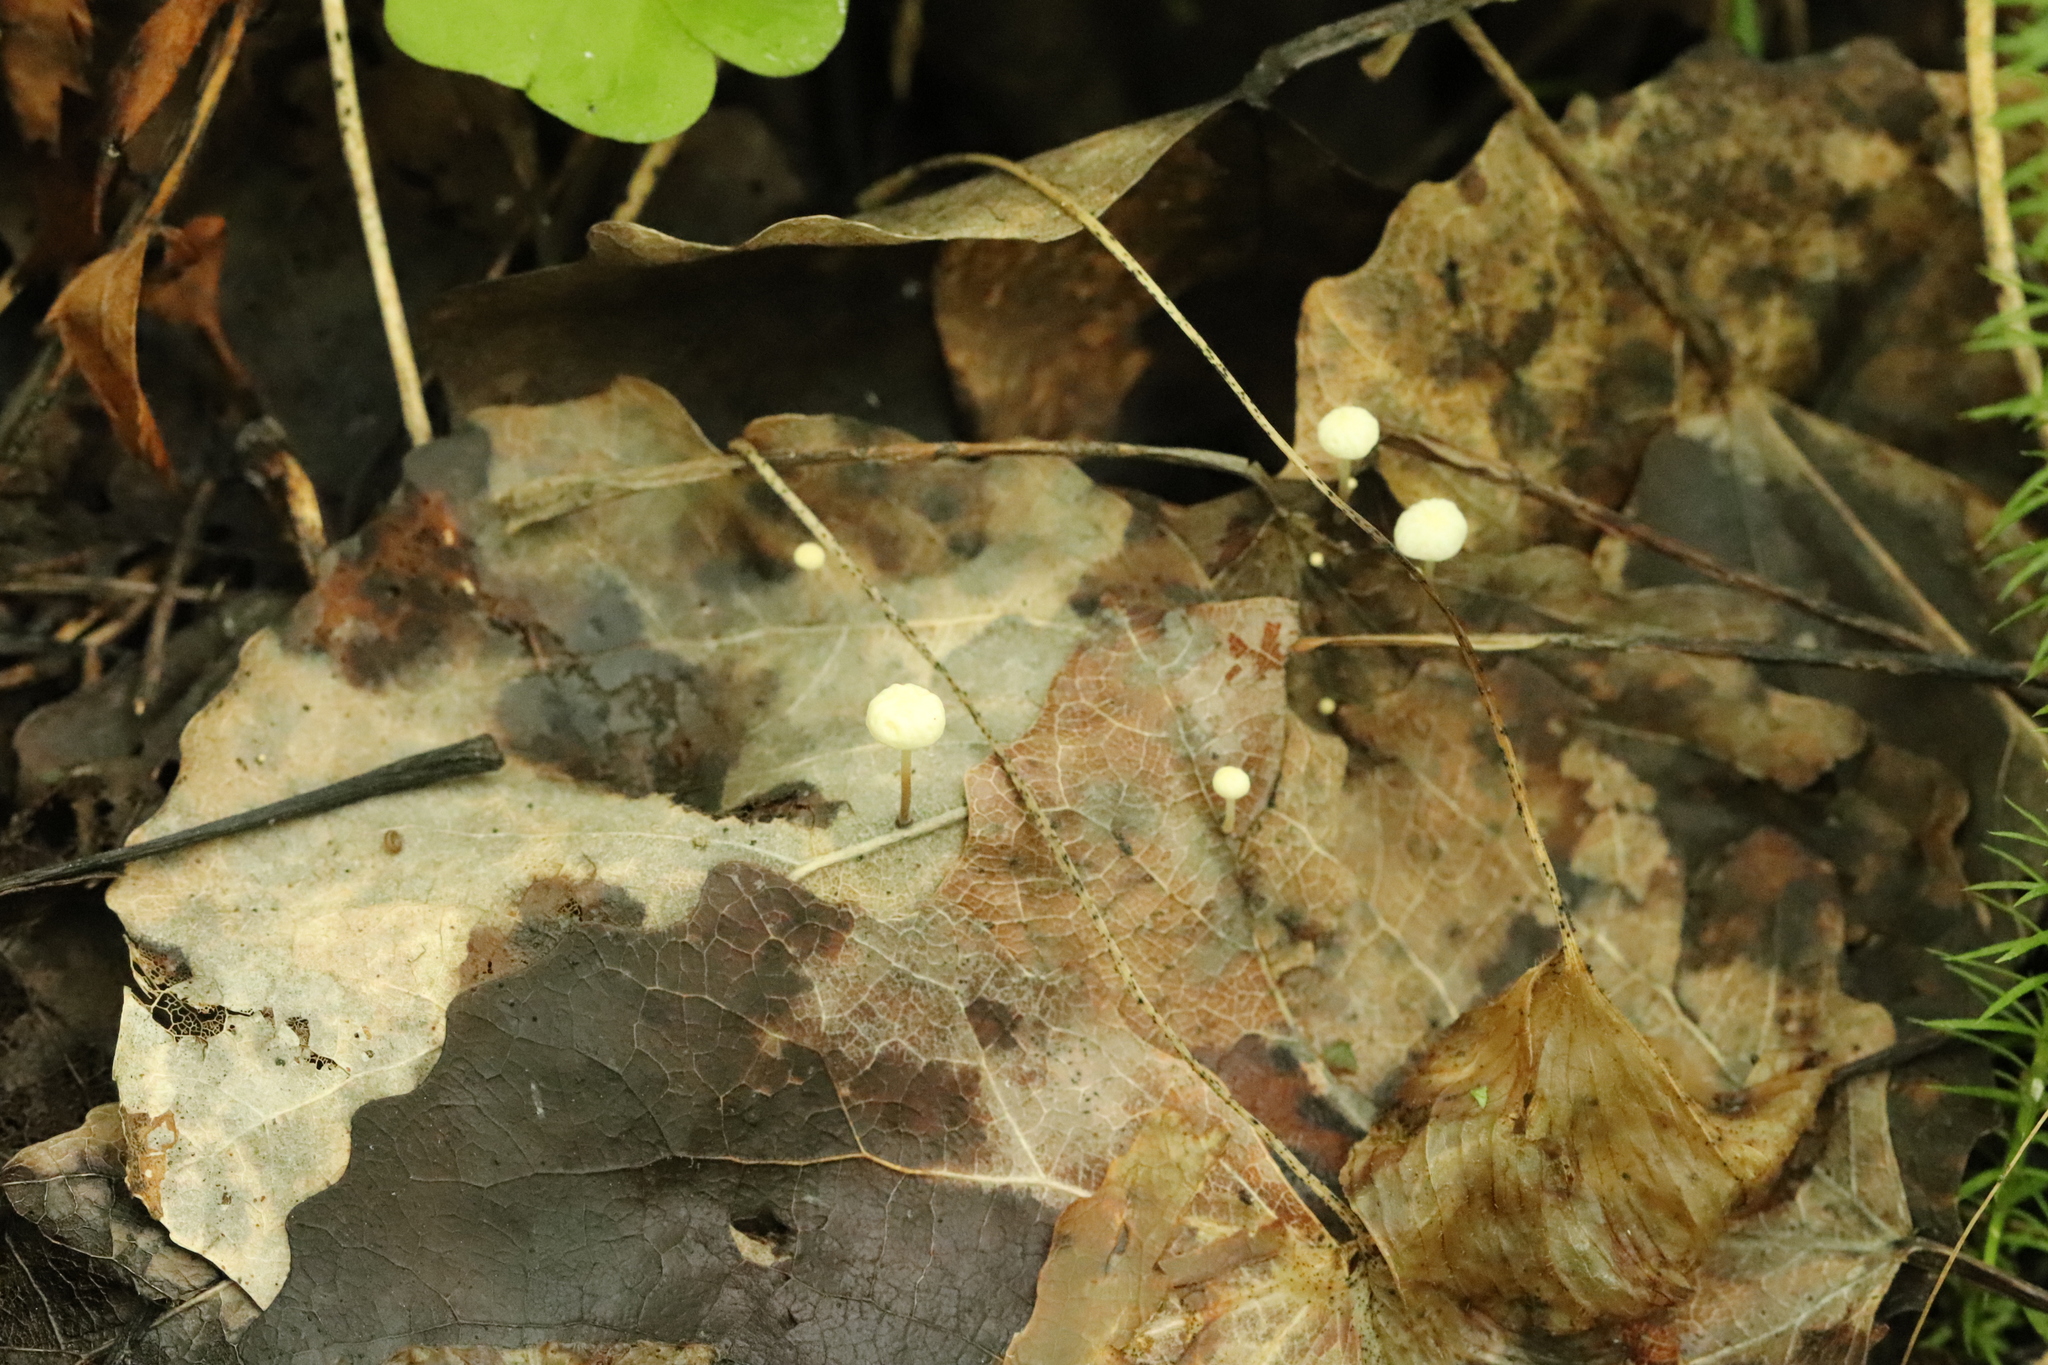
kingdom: Fungi
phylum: Basidiomycota
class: Agaricomycetes
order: Agaricales
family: Physalacriaceae
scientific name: Physalacriaceae
